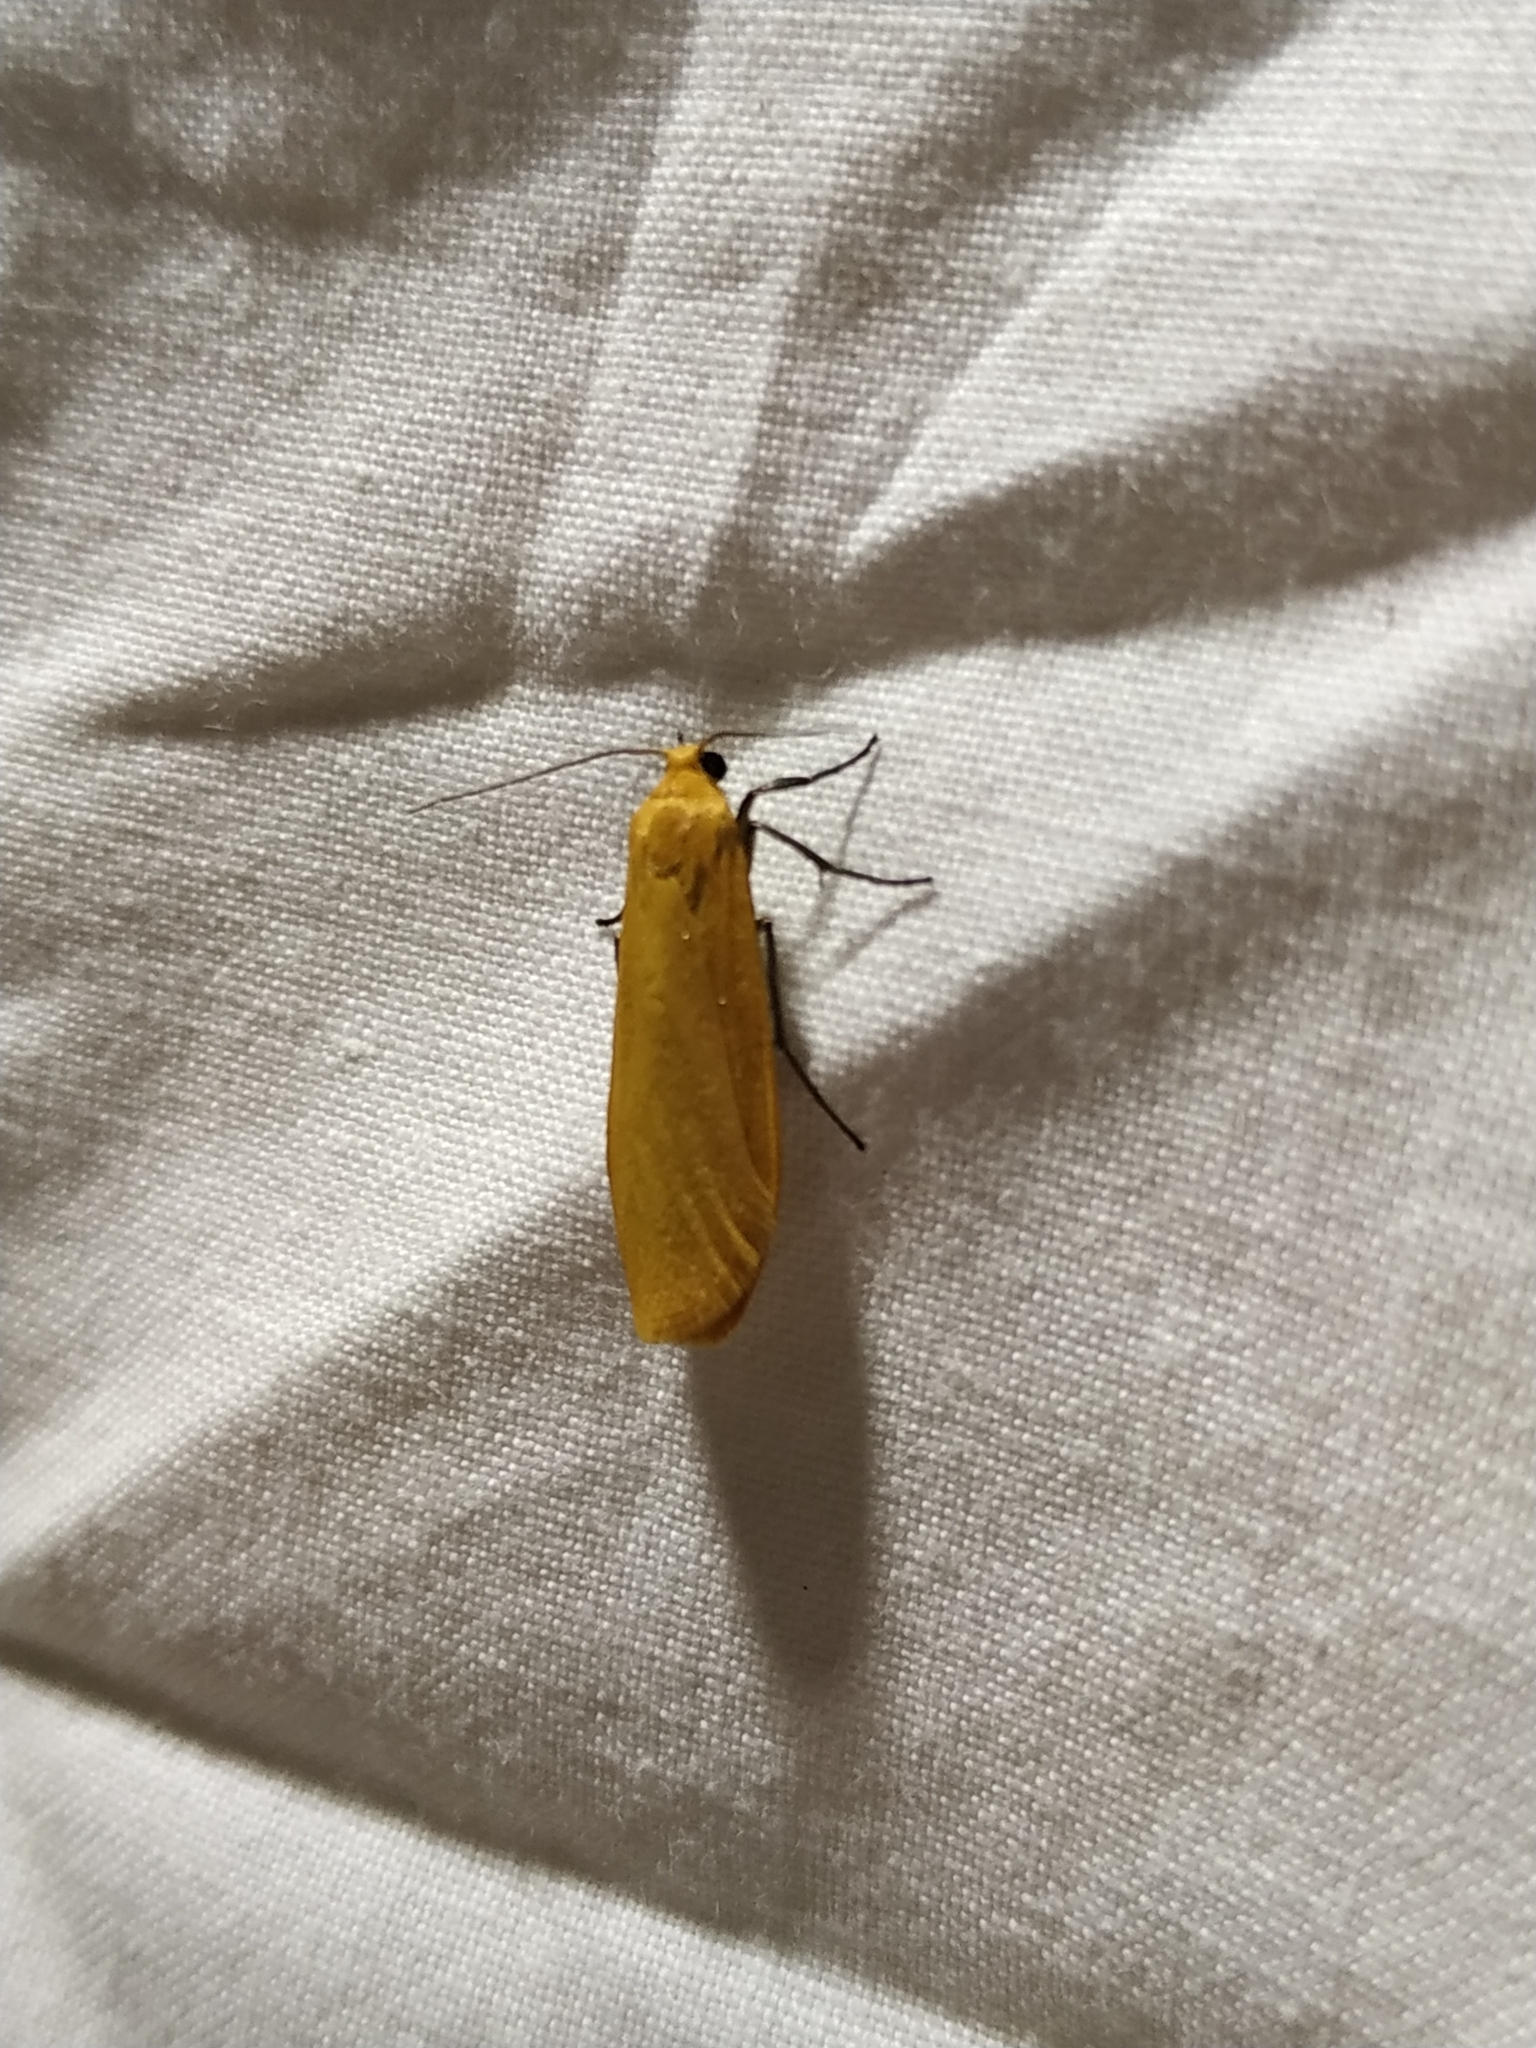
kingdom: Animalia
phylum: Arthropoda
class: Insecta
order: Lepidoptera
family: Erebidae
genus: Wittia
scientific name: Wittia sororcula
